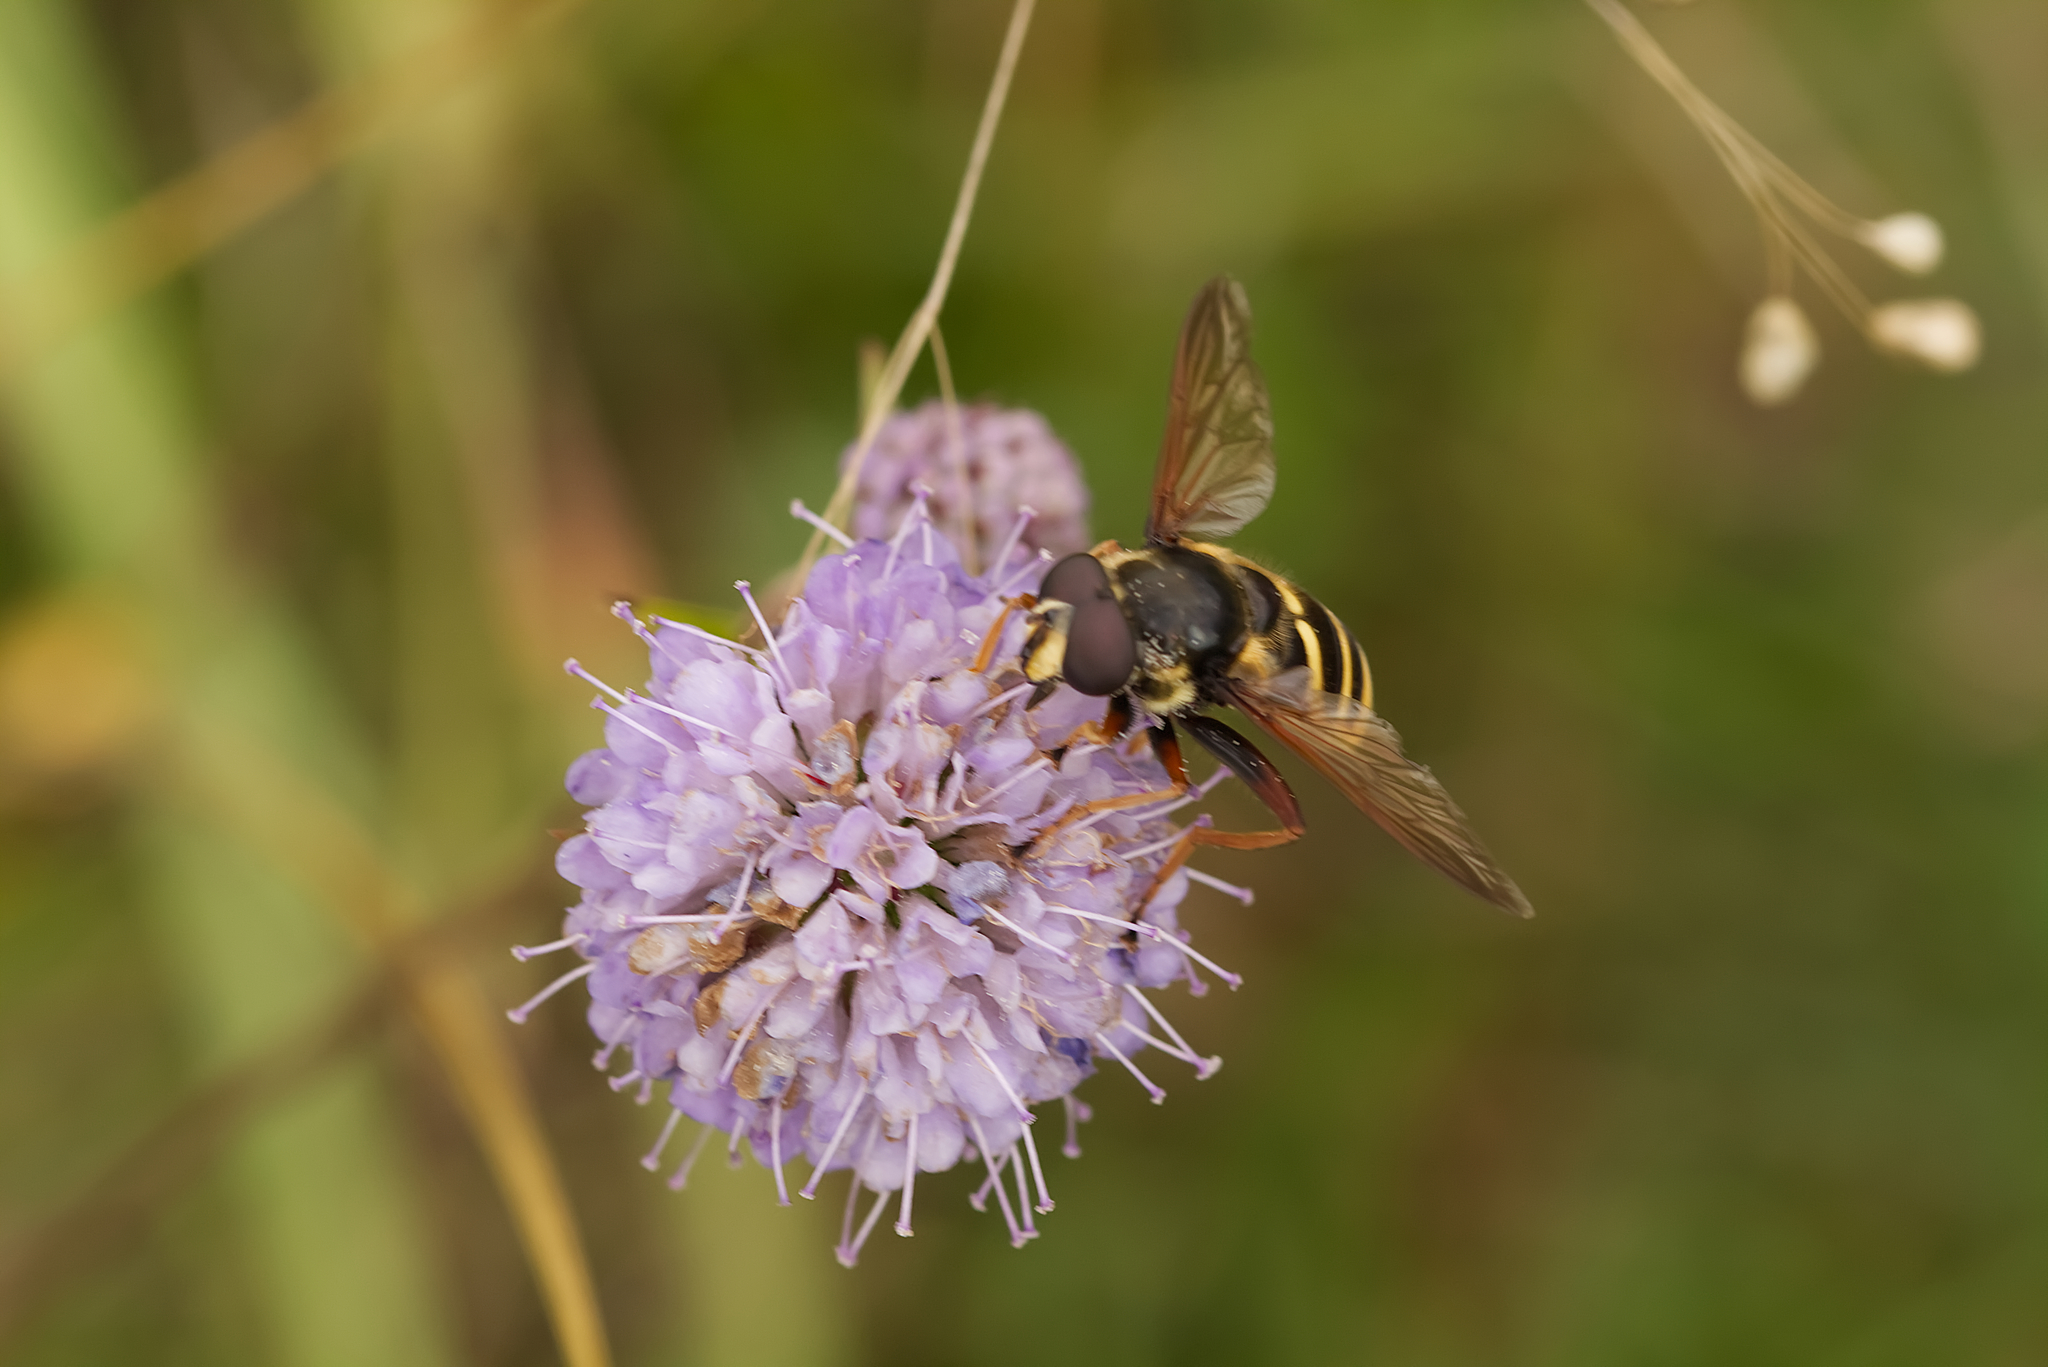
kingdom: Animalia
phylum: Arthropoda
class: Insecta
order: Diptera
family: Syrphidae
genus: Sericomyia
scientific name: Sericomyia silentis
